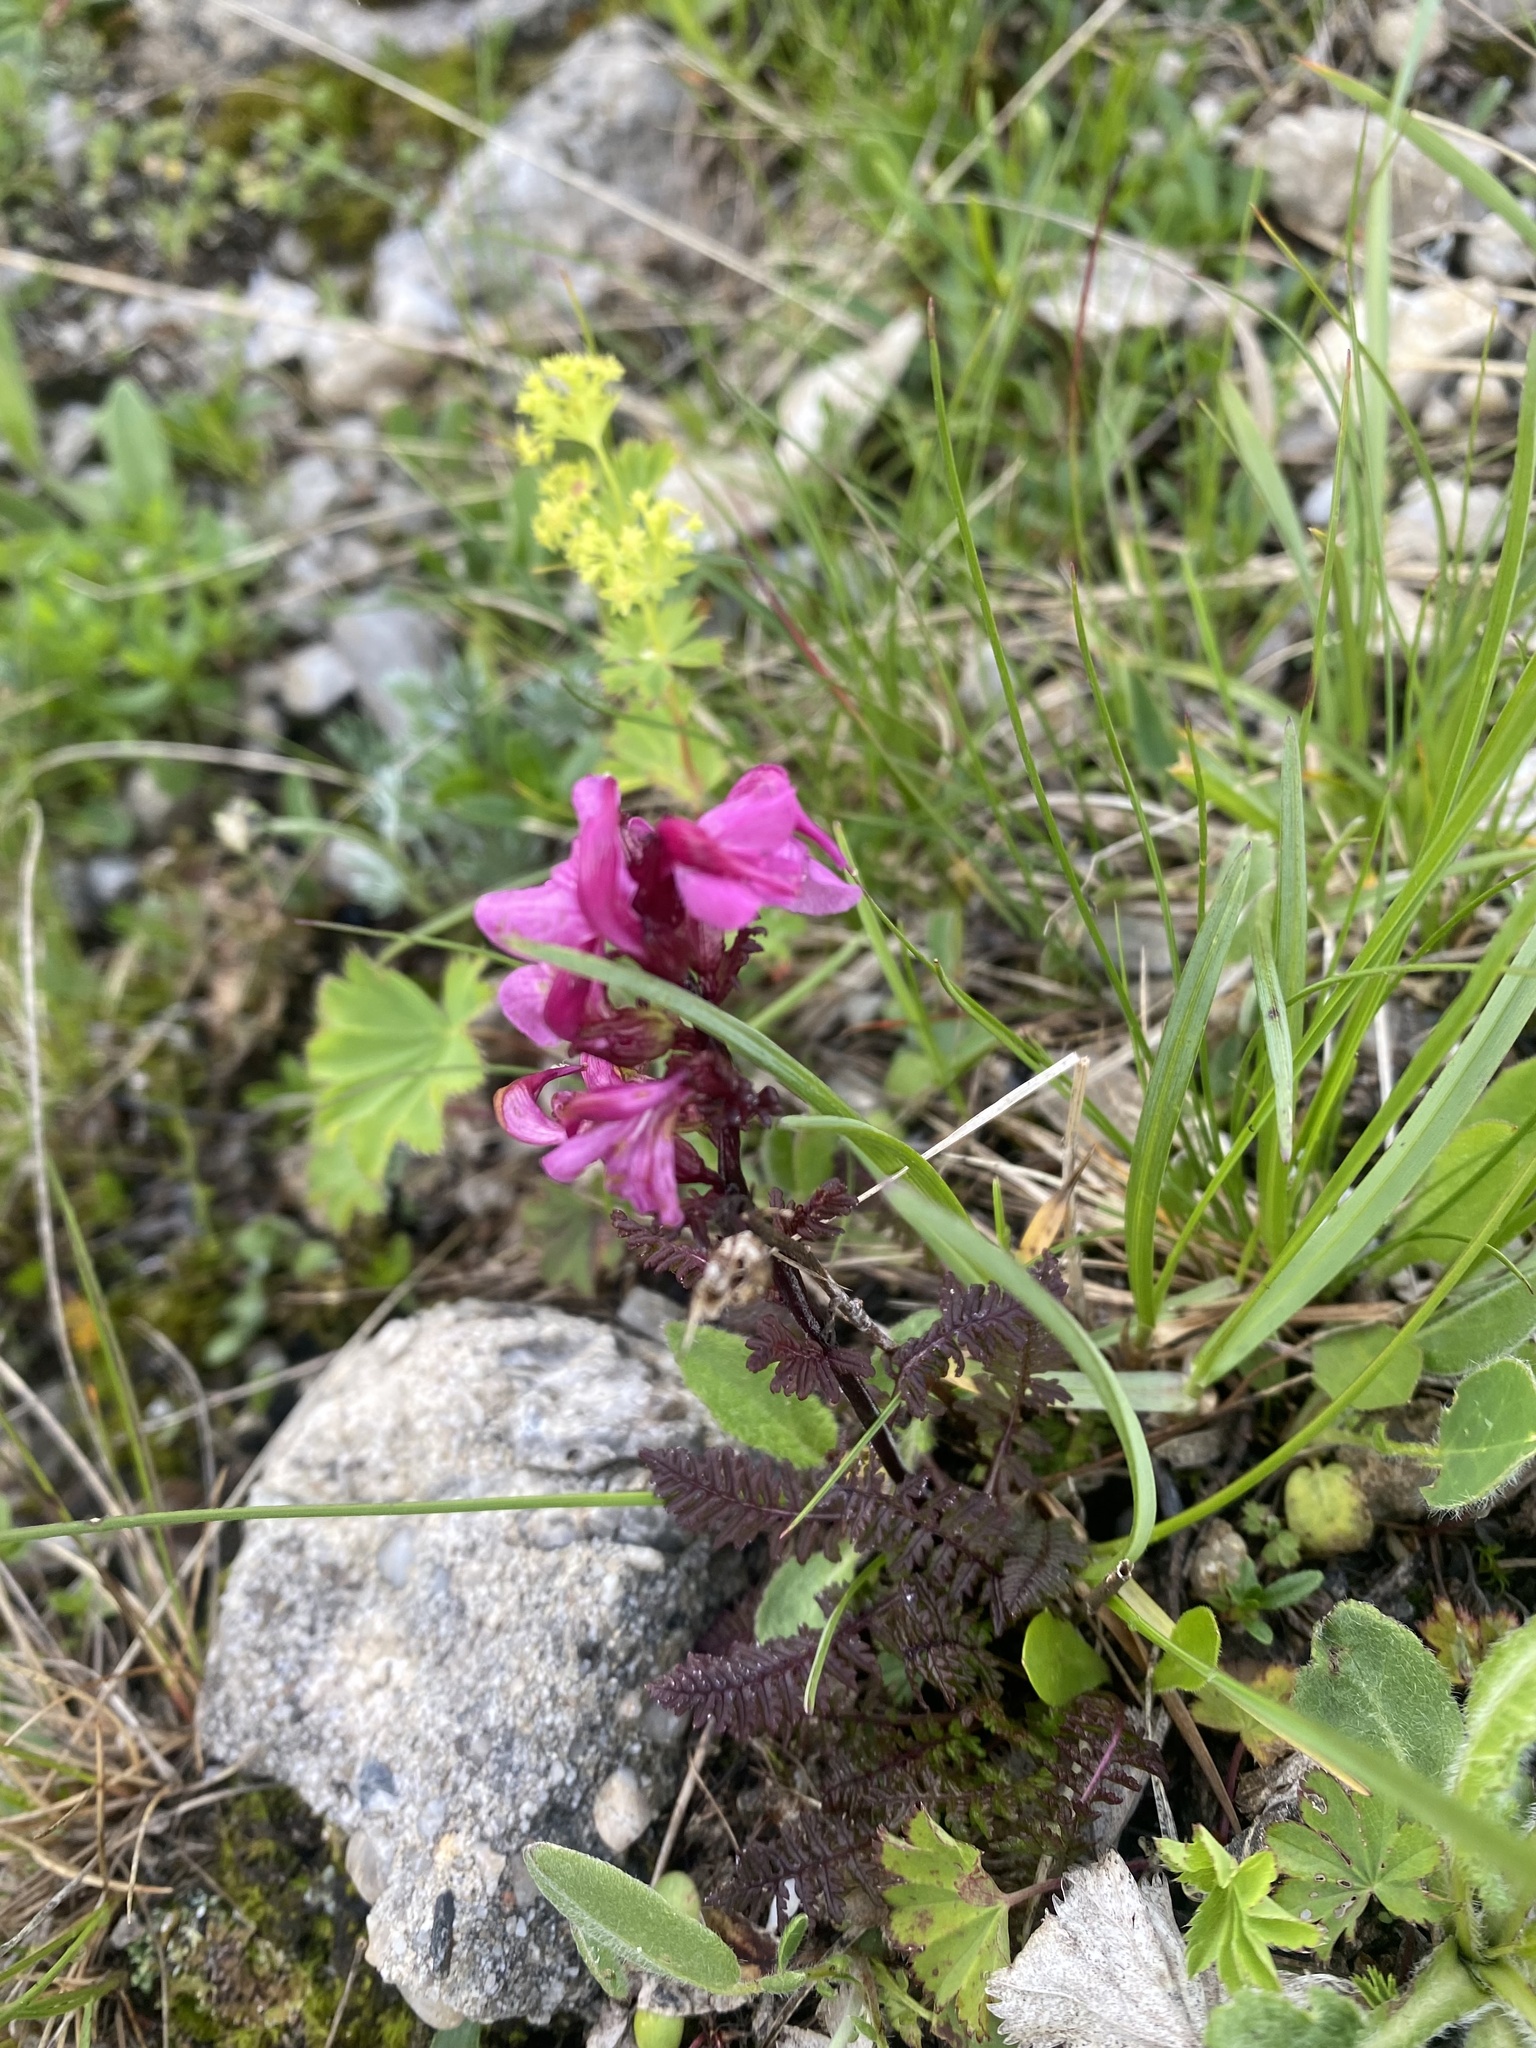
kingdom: Plantae
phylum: Tracheophyta
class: Magnoliopsida
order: Lamiales
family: Orobanchaceae
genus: Pedicularis
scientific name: Pedicularis nordmanniana
